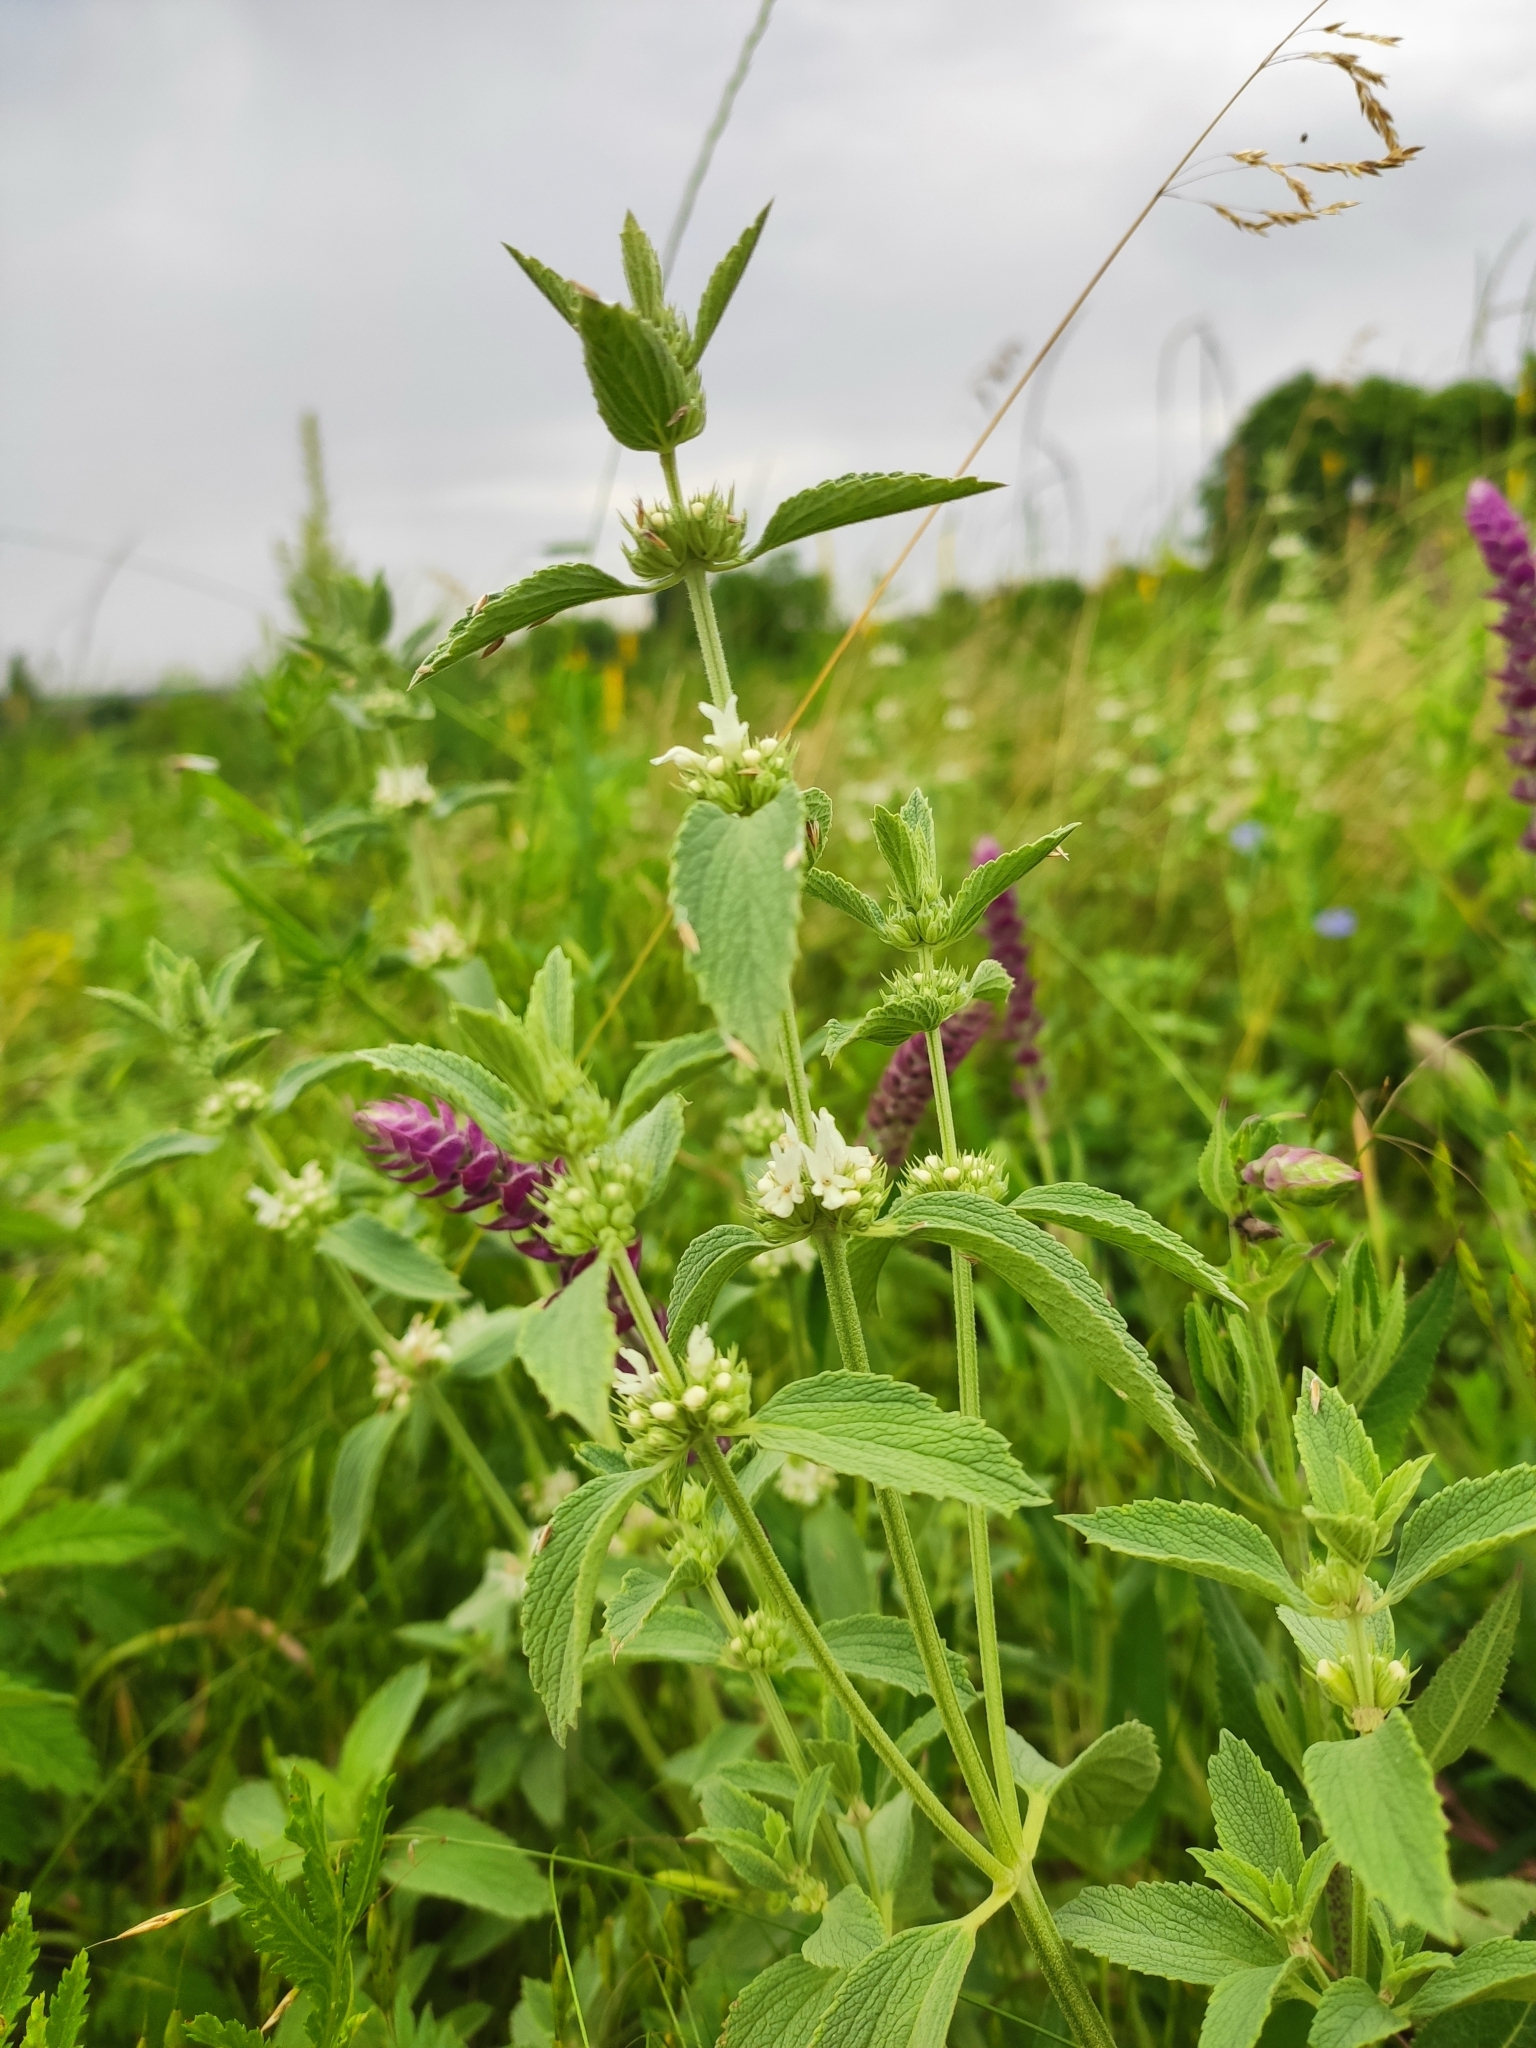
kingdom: Plantae
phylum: Tracheophyta
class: Magnoliopsida
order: Lamiales
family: Lamiaceae
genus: Marrubium
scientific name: Marrubium peregrinum
